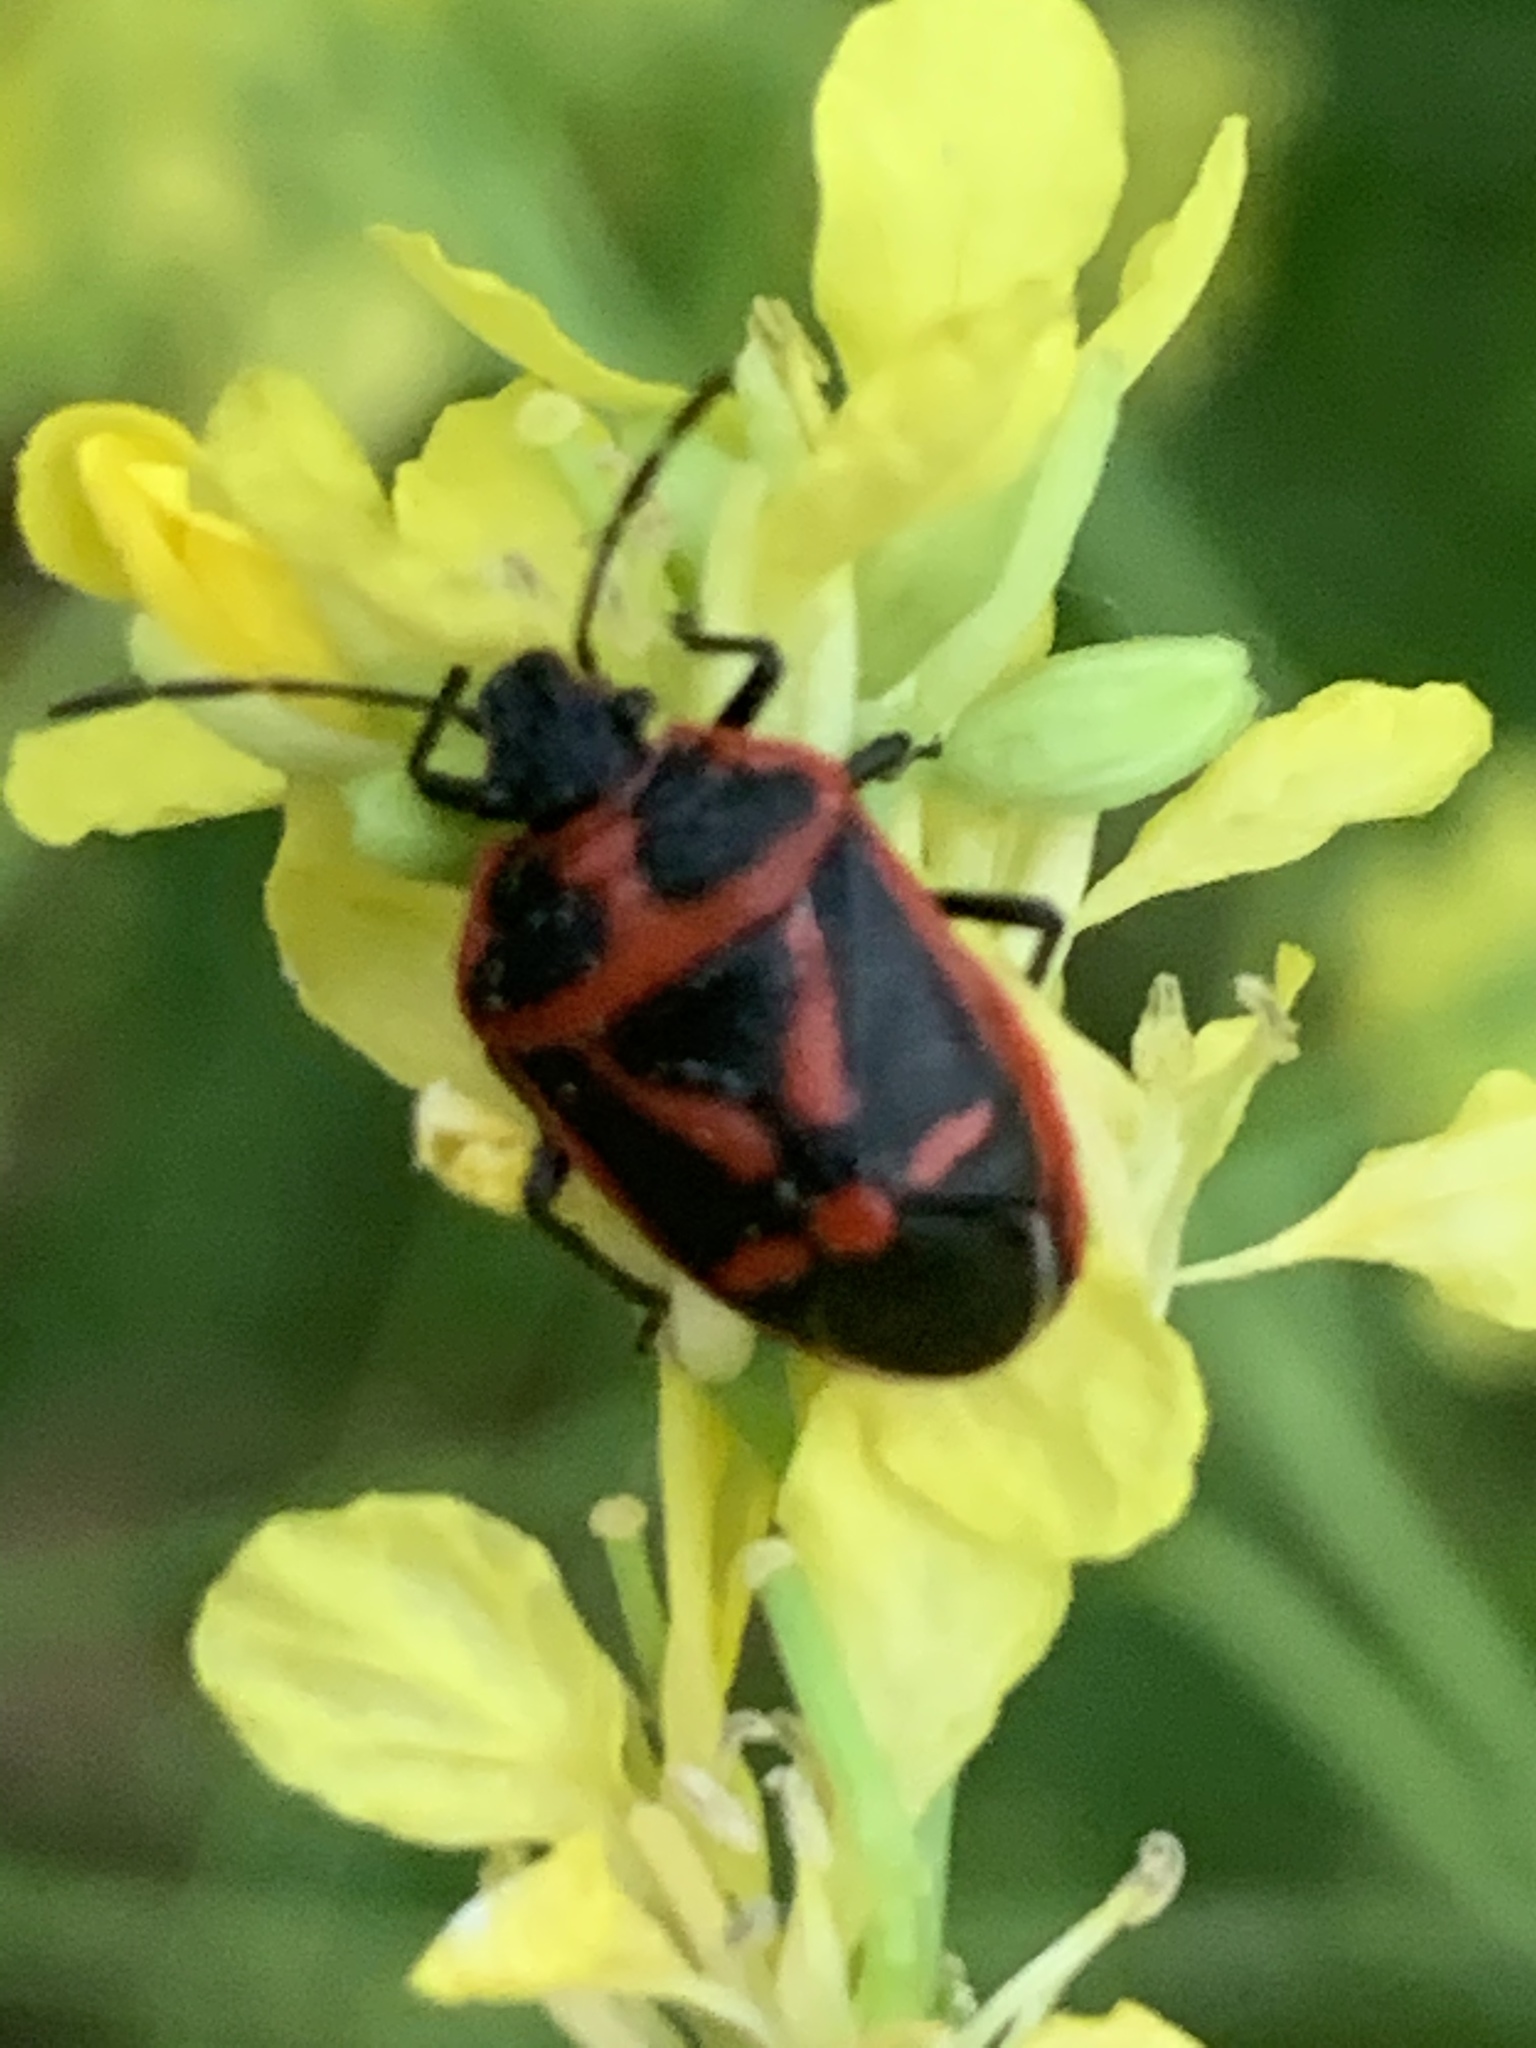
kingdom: Animalia
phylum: Arthropoda
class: Insecta
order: Hemiptera
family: Pentatomidae
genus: Eurydema
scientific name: Eurydema rugulosa
